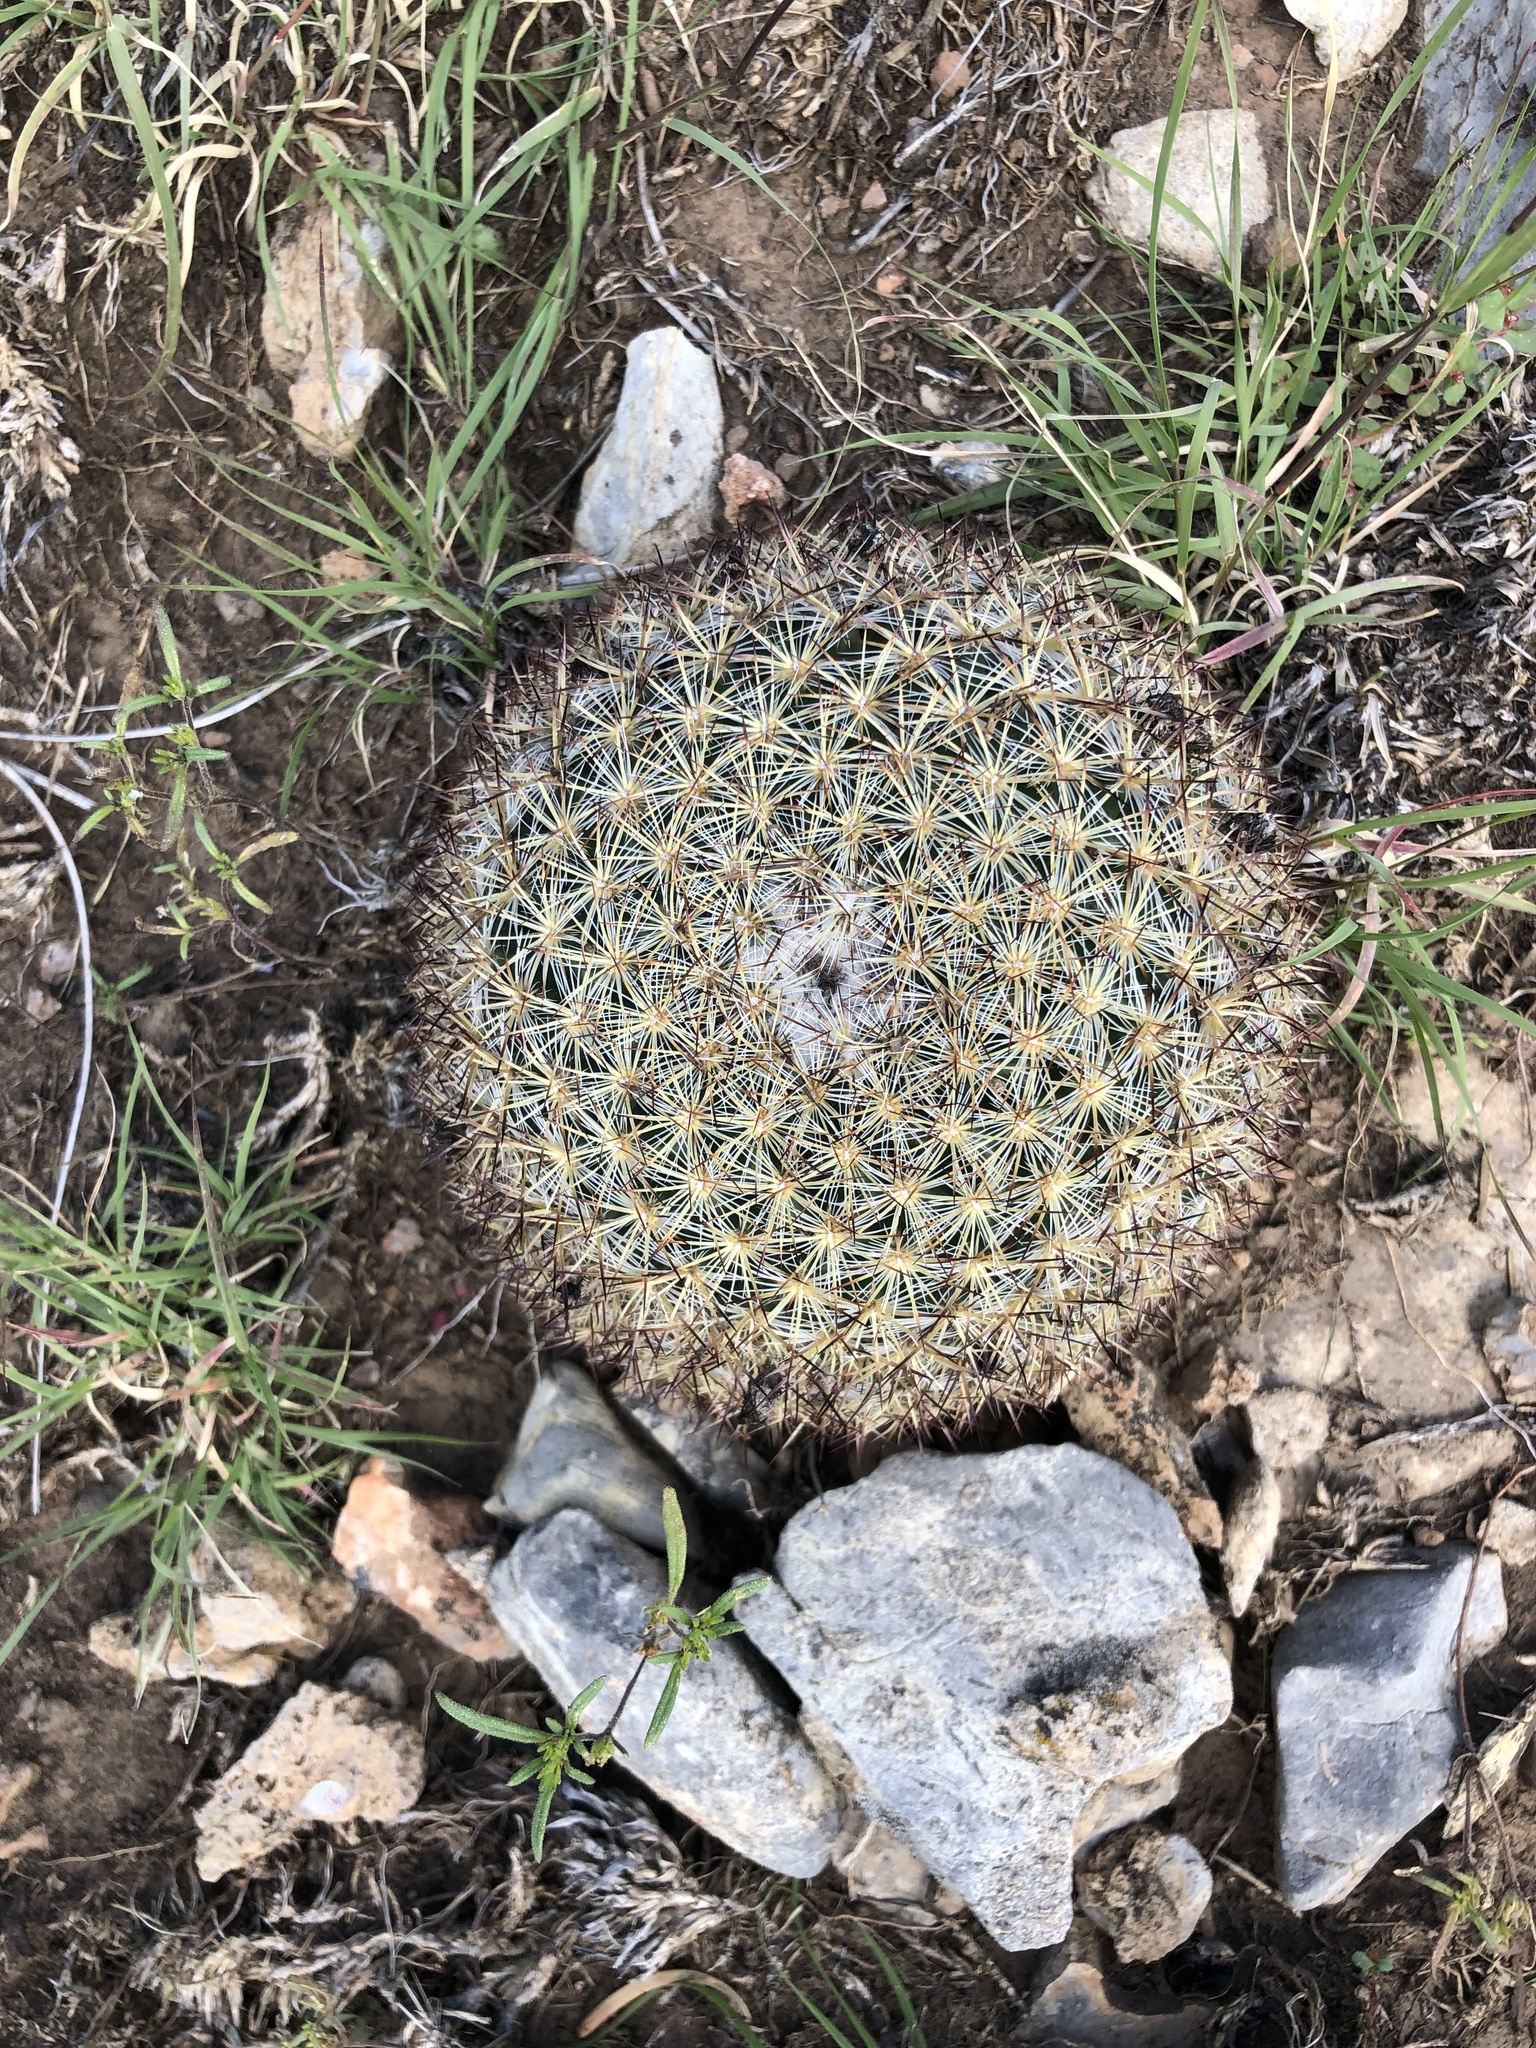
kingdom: Plantae
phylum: Tracheophyta
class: Magnoliopsida
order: Caryophyllales
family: Cactaceae
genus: Pediocactus
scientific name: Pediocactus simpsonii
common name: Simpson's hedgehog cactus
